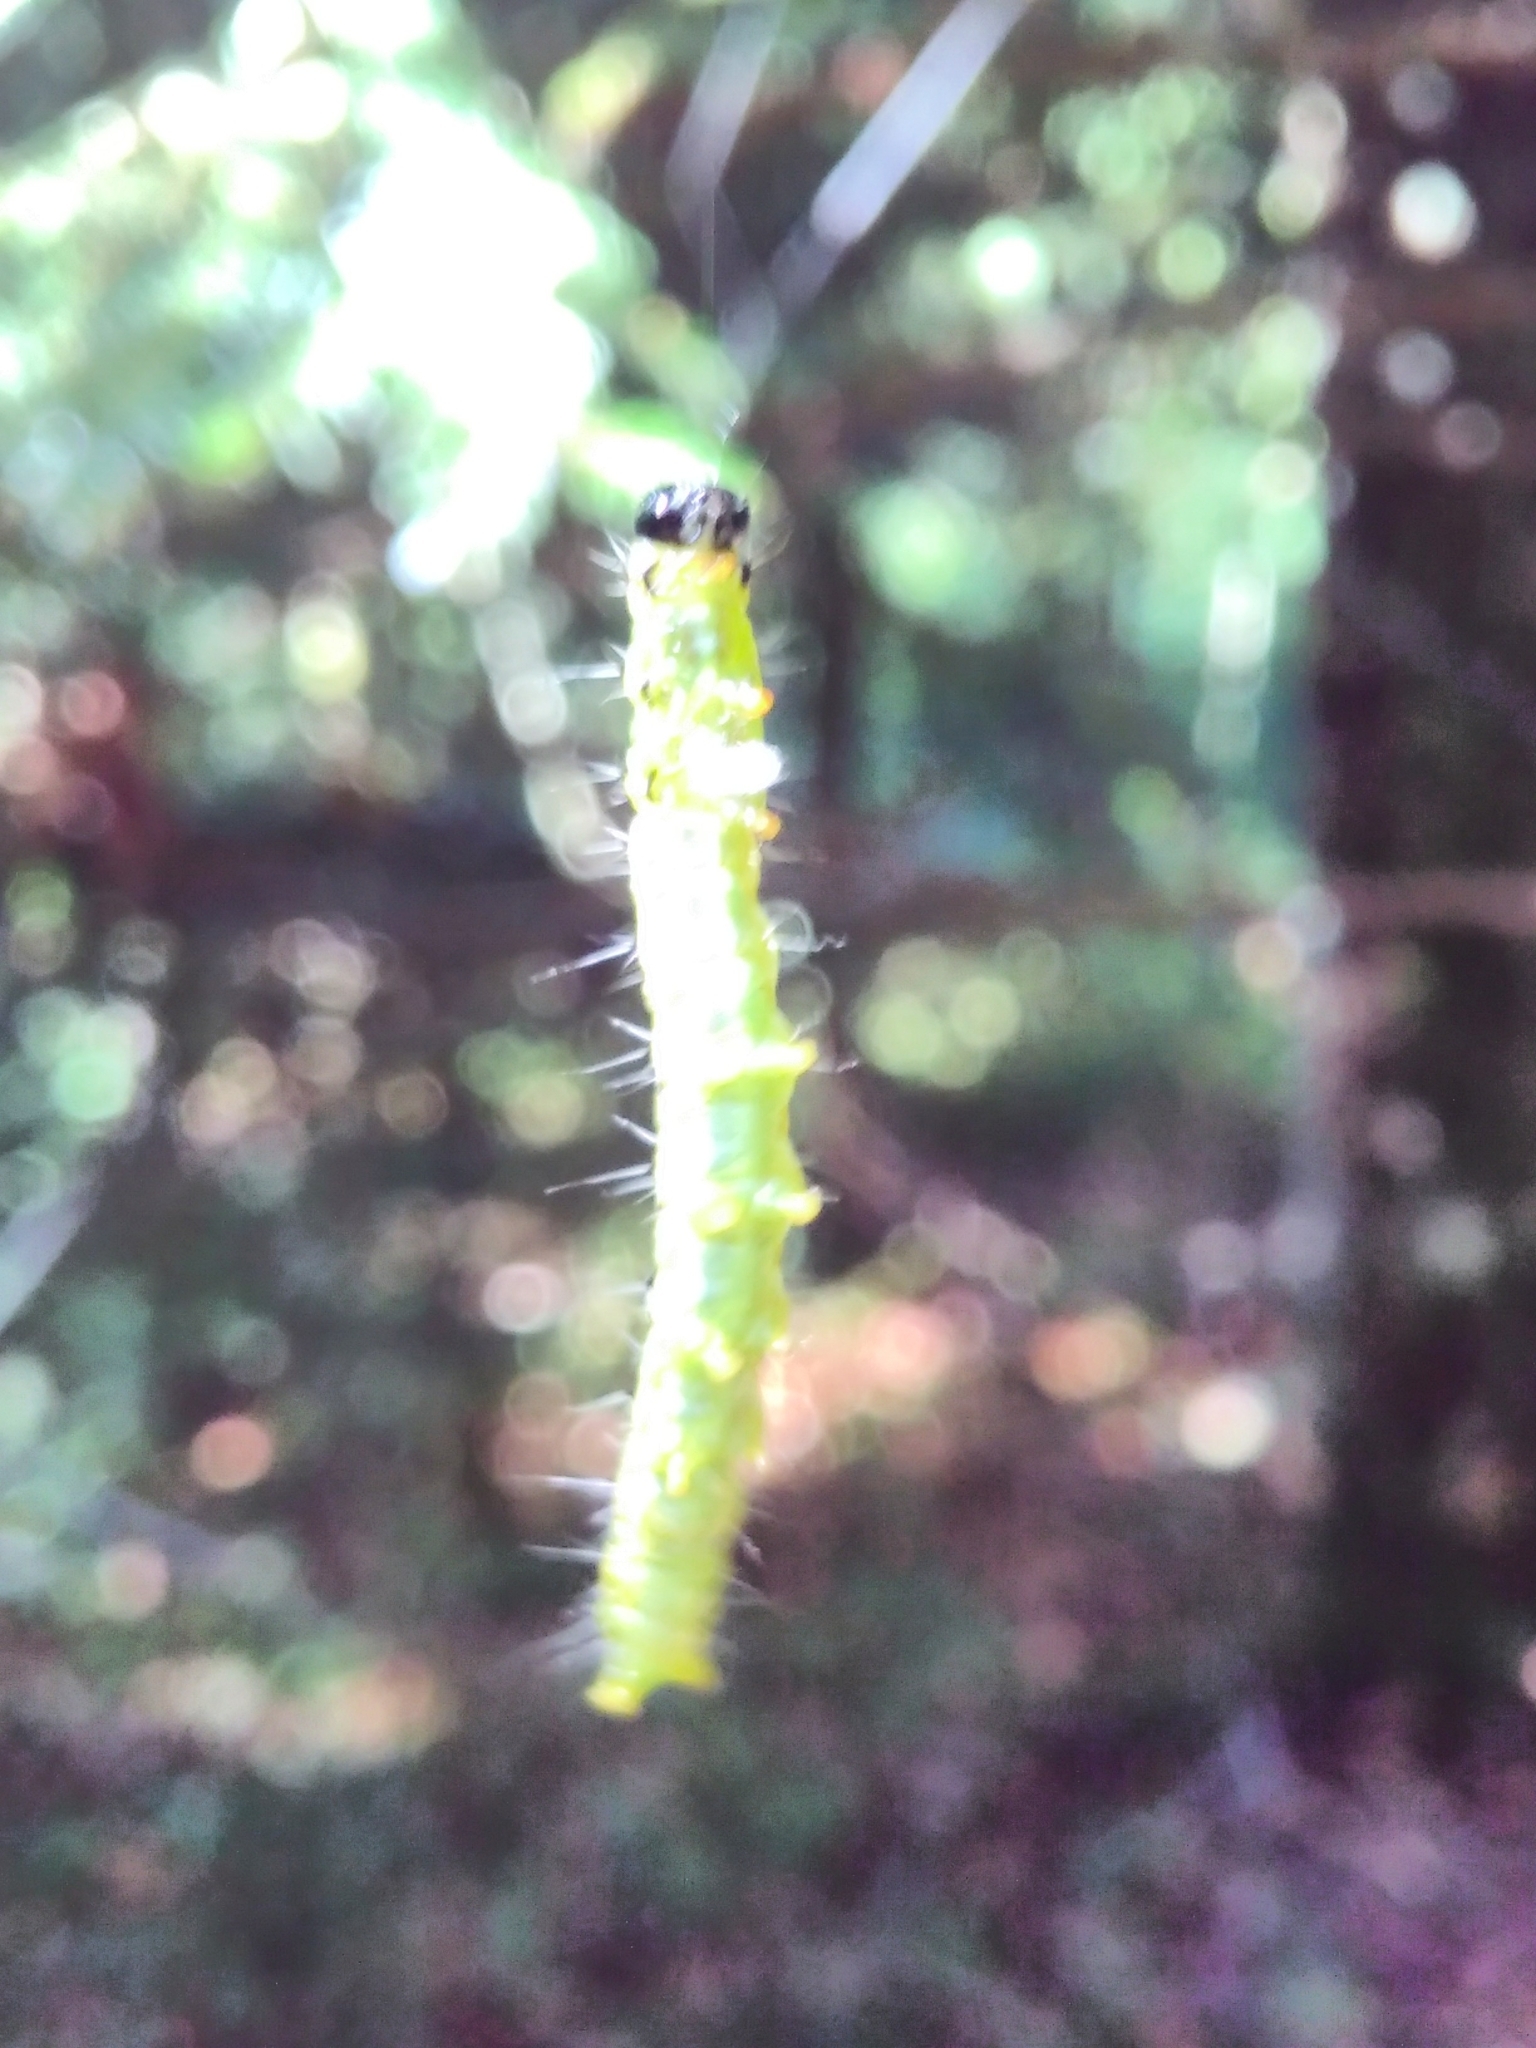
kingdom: Animalia
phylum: Arthropoda
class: Insecta
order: Lepidoptera
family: Crambidae
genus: Cydalima
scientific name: Cydalima perspectalis
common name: Box tree moth
